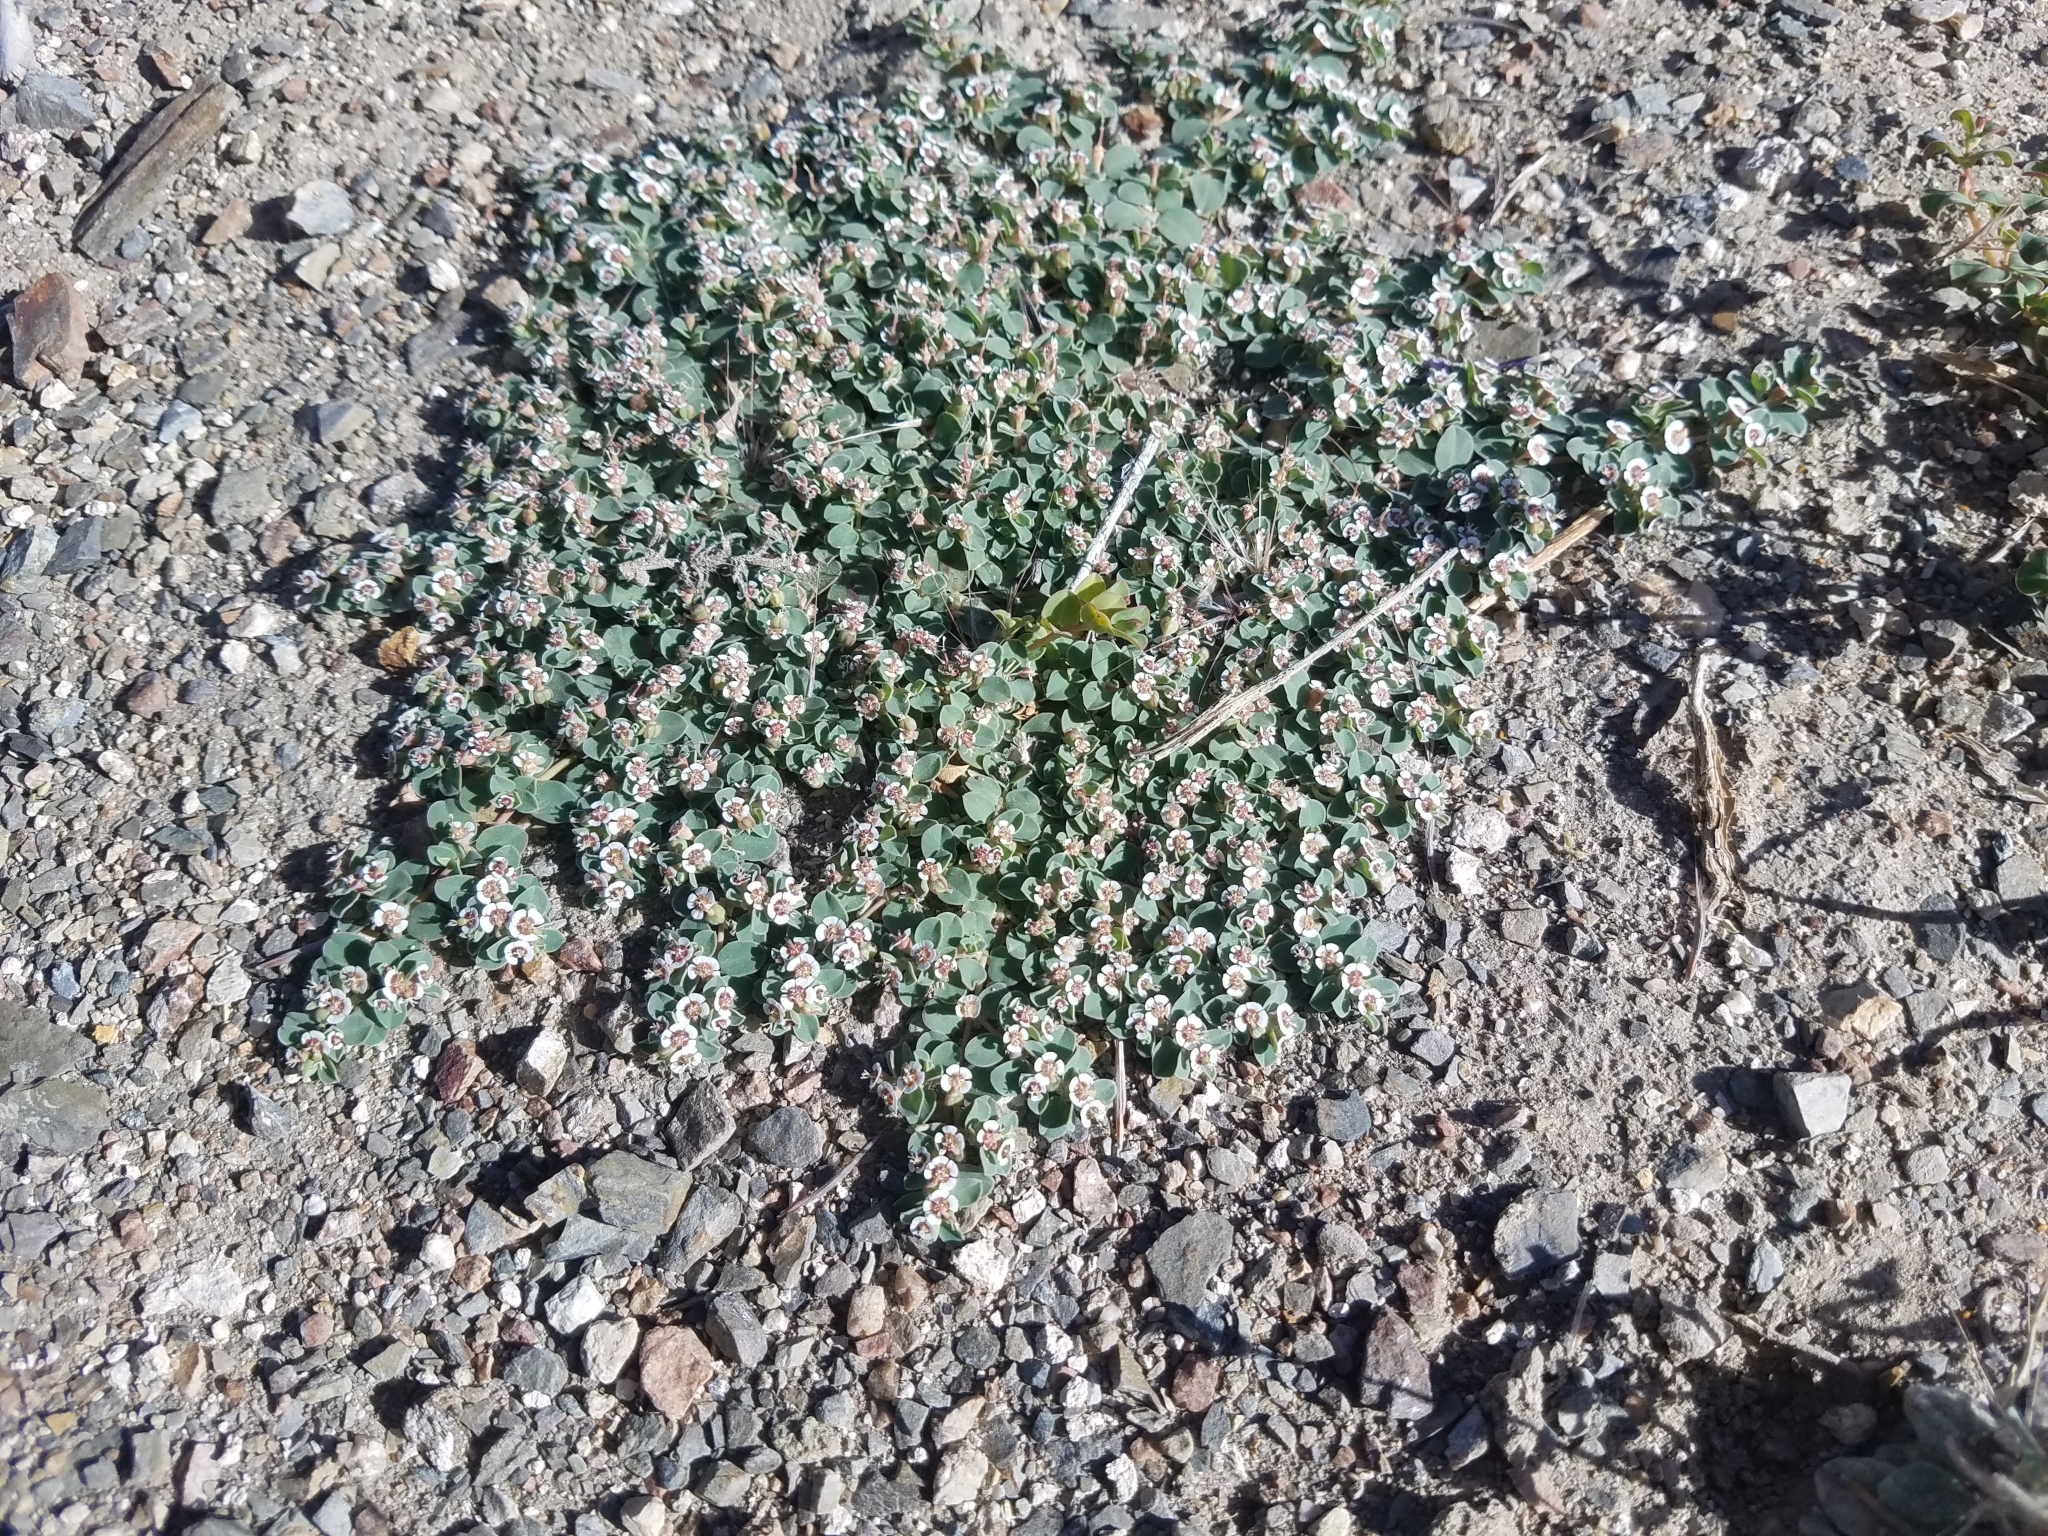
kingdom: Plantae
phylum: Tracheophyta
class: Magnoliopsida
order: Malpighiales
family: Euphorbiaceae
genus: Euphorbia
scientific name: Euphorbia albomarginata
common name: Whitemargin sandmat
